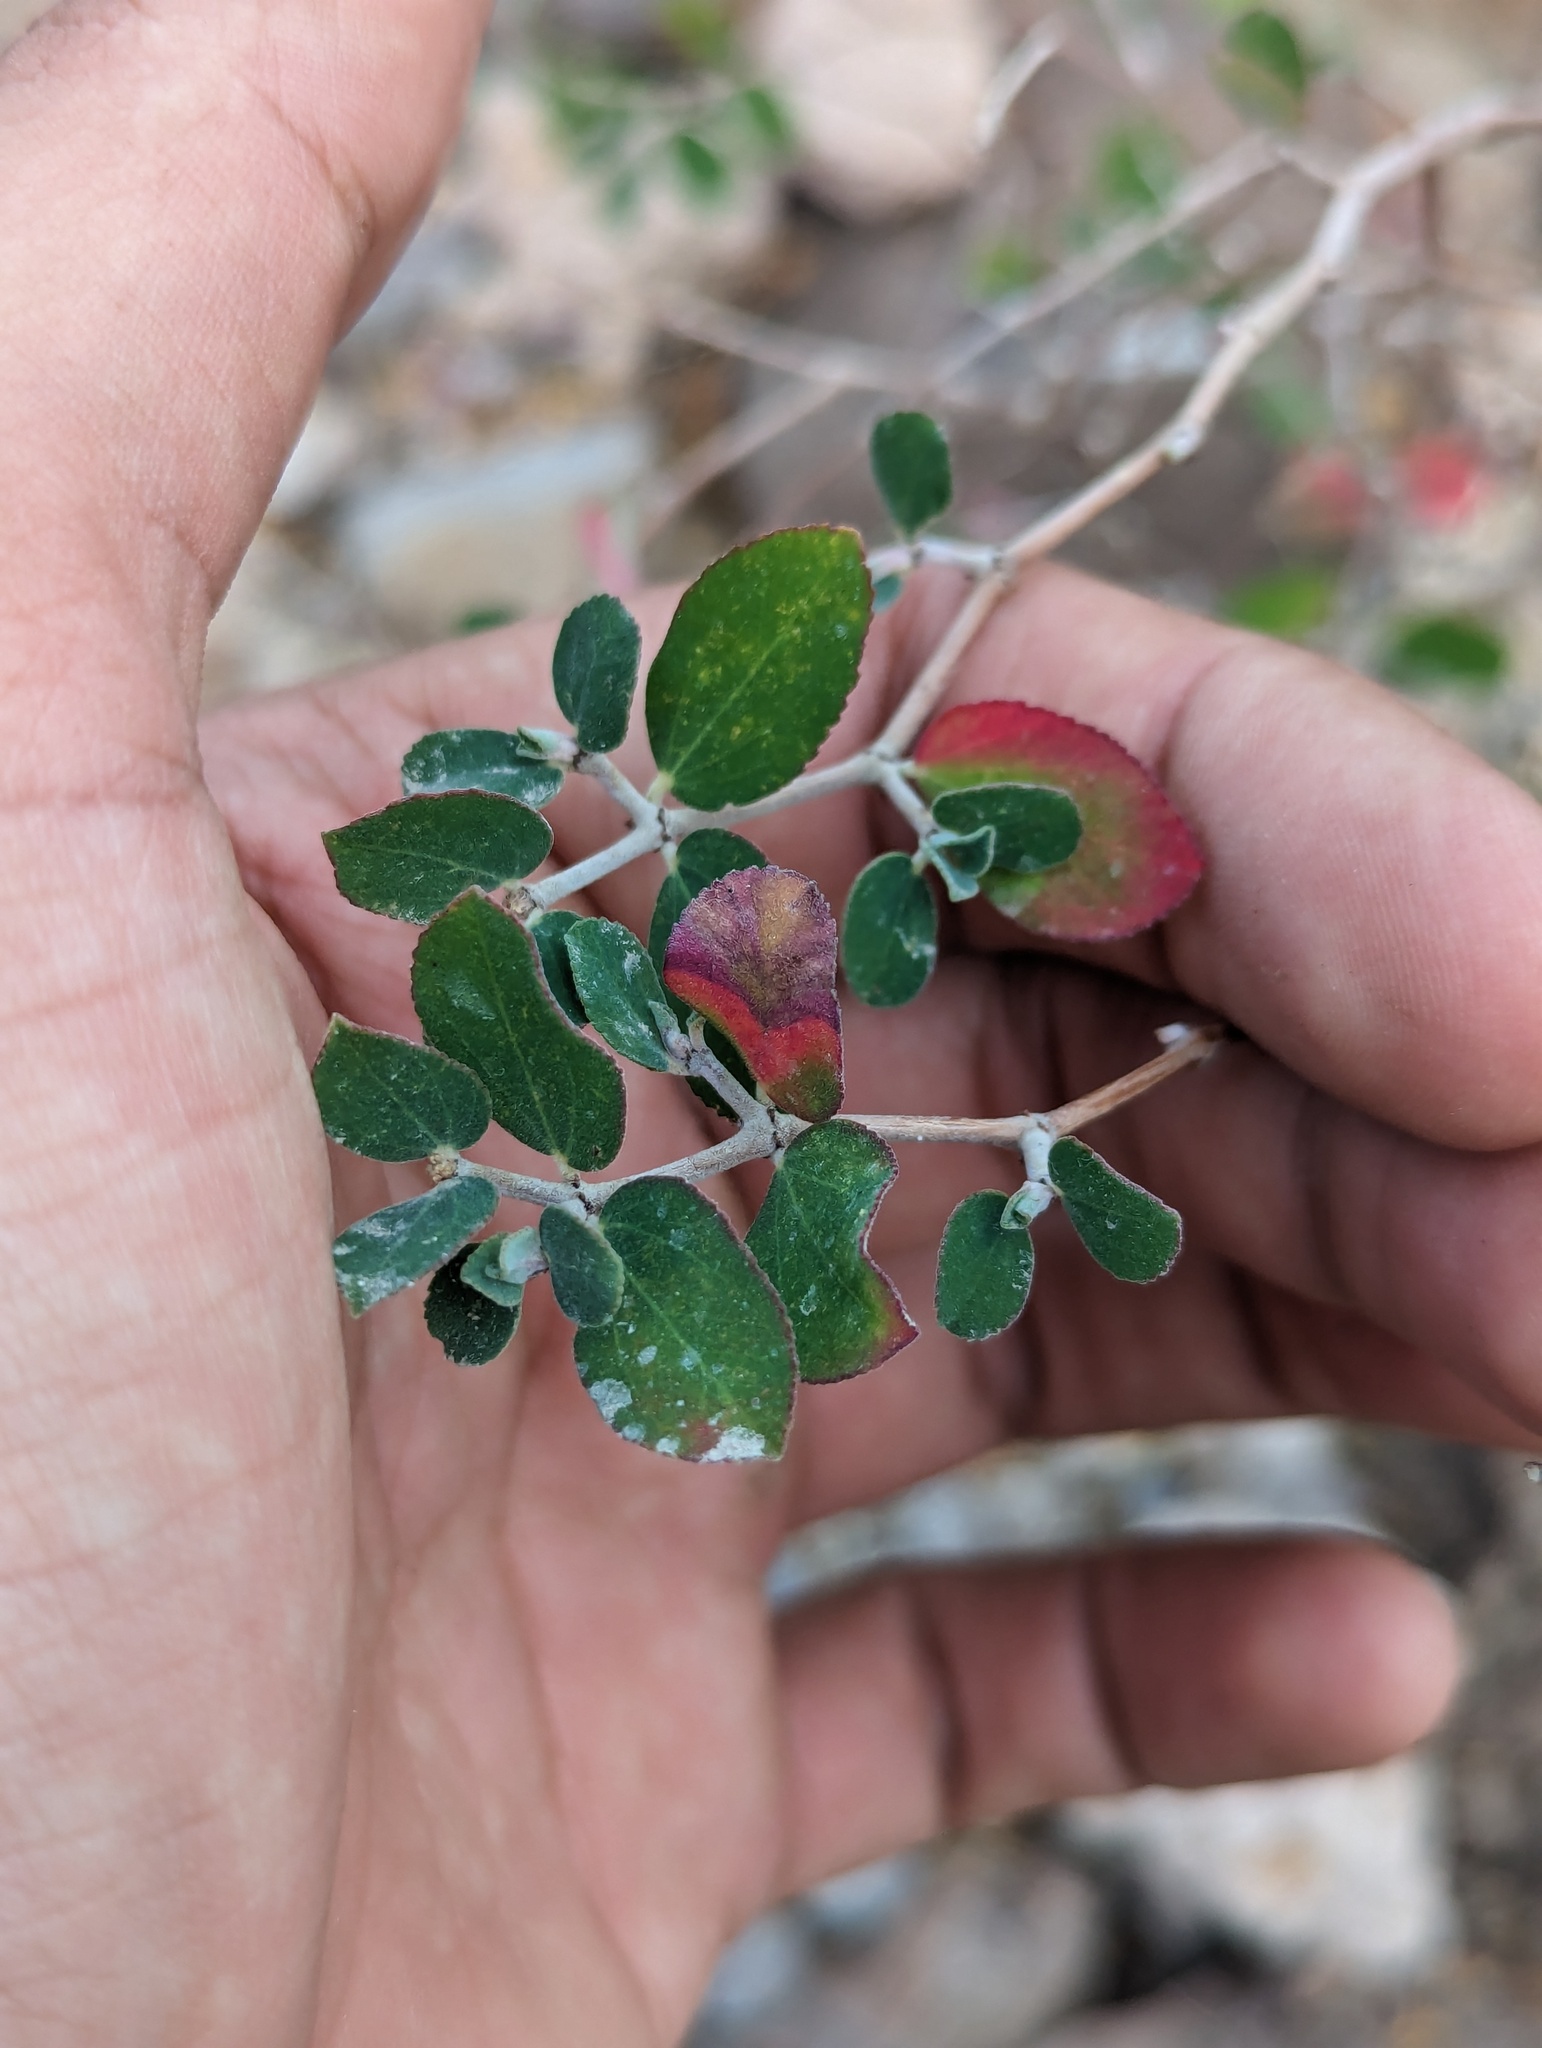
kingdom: Plantae
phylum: Tracheophyta
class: Magnoliopsida
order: Malpighiales
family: Euphorbiaceae
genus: Euphorbia
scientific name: Euphorbia tomentulosa
